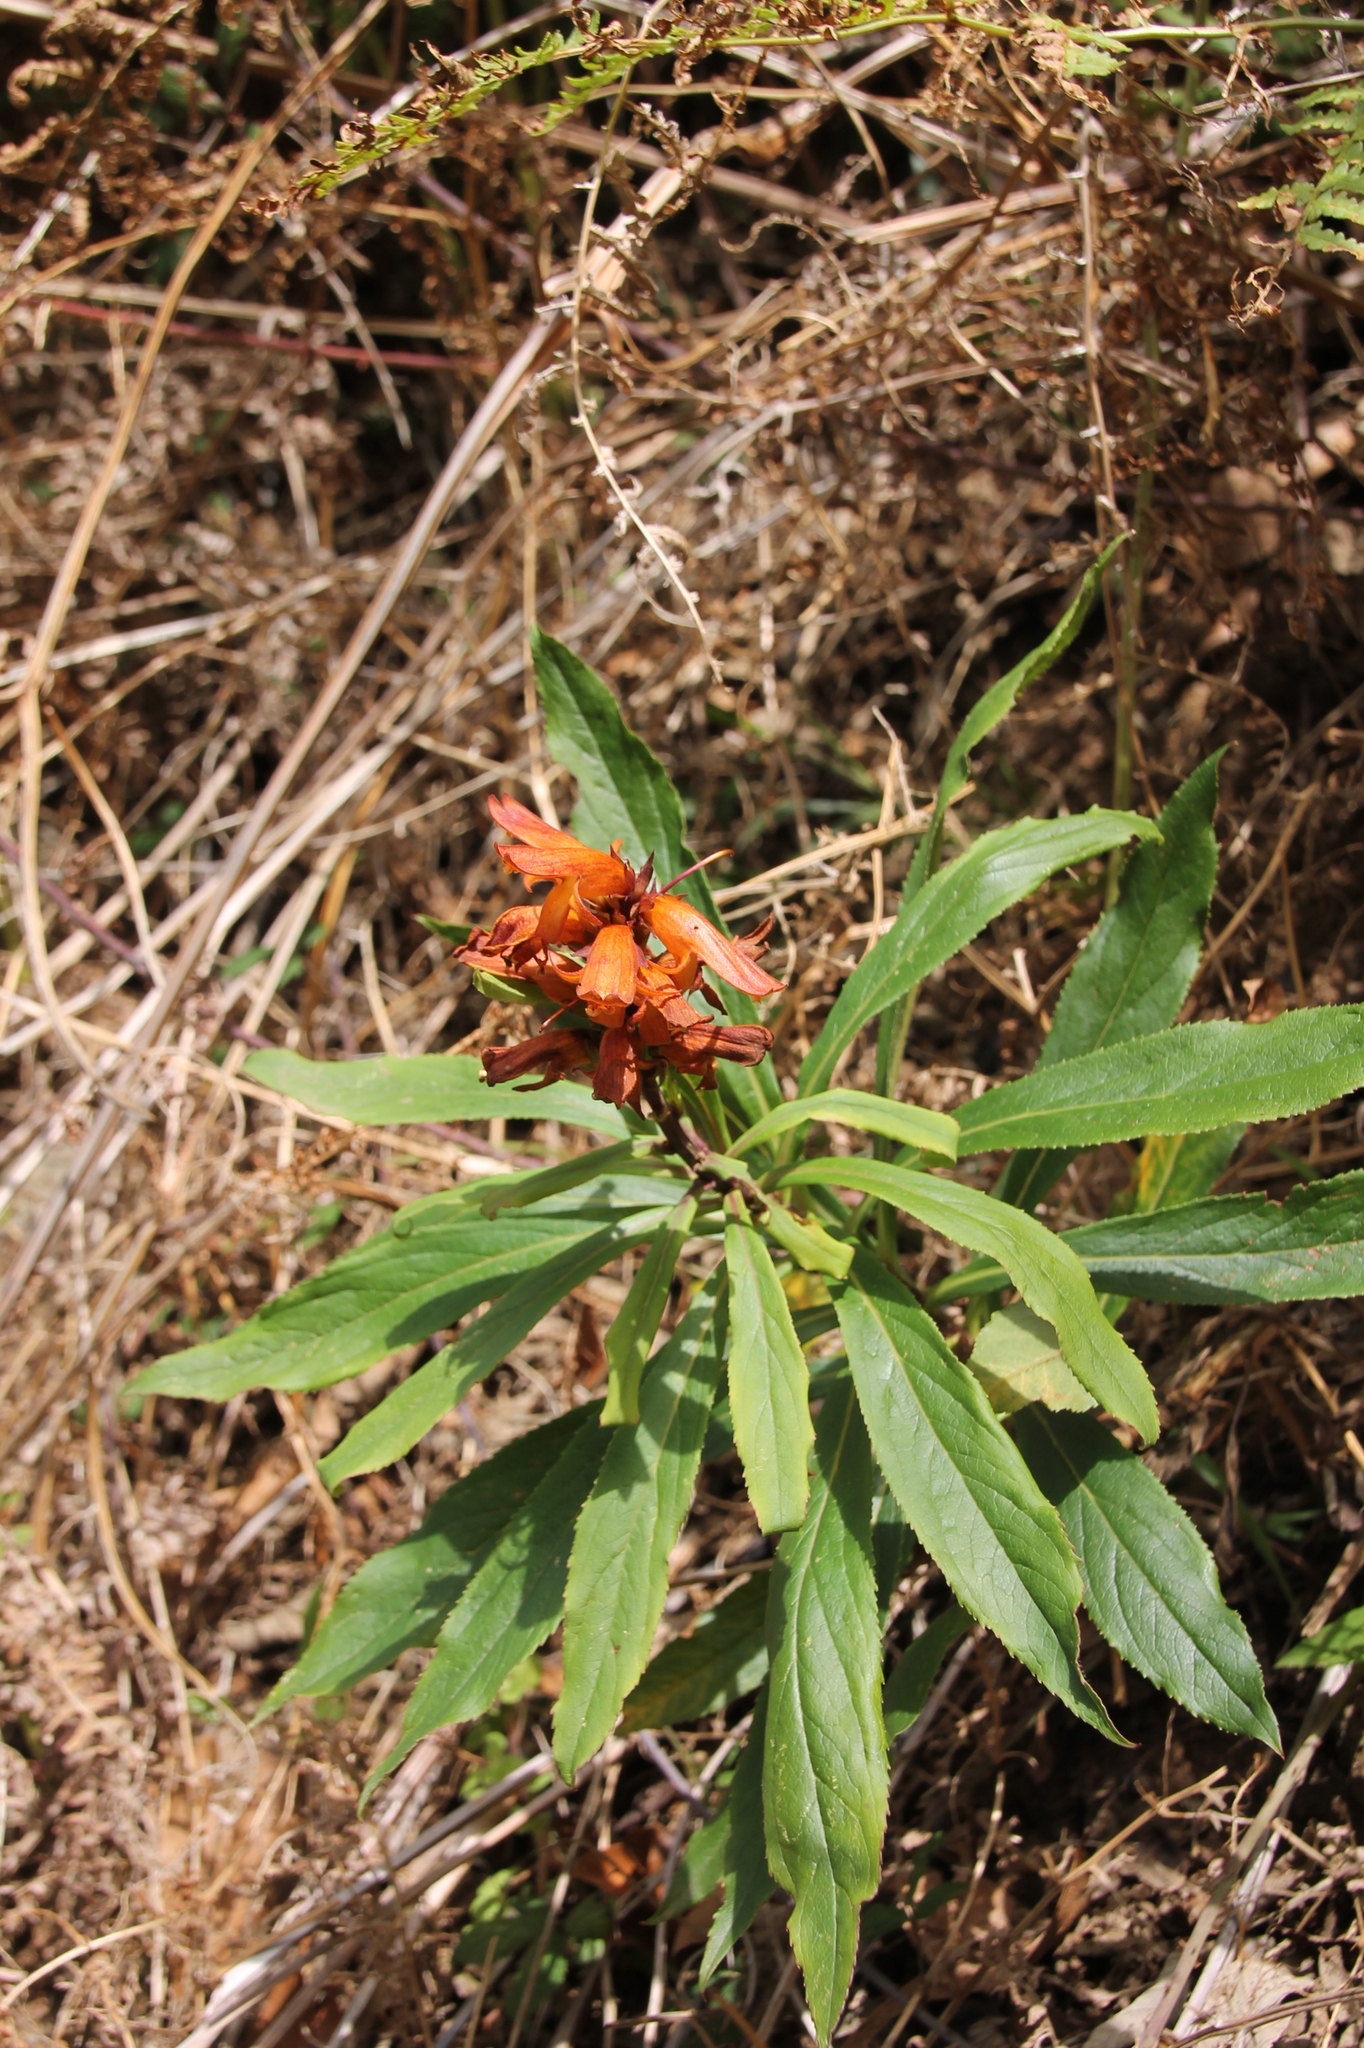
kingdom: Plantae
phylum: Tracheophyta
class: Magnoliopsida
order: Lamiales
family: Plantaginaceae
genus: Digitalis
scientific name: Digitalis canariensis
